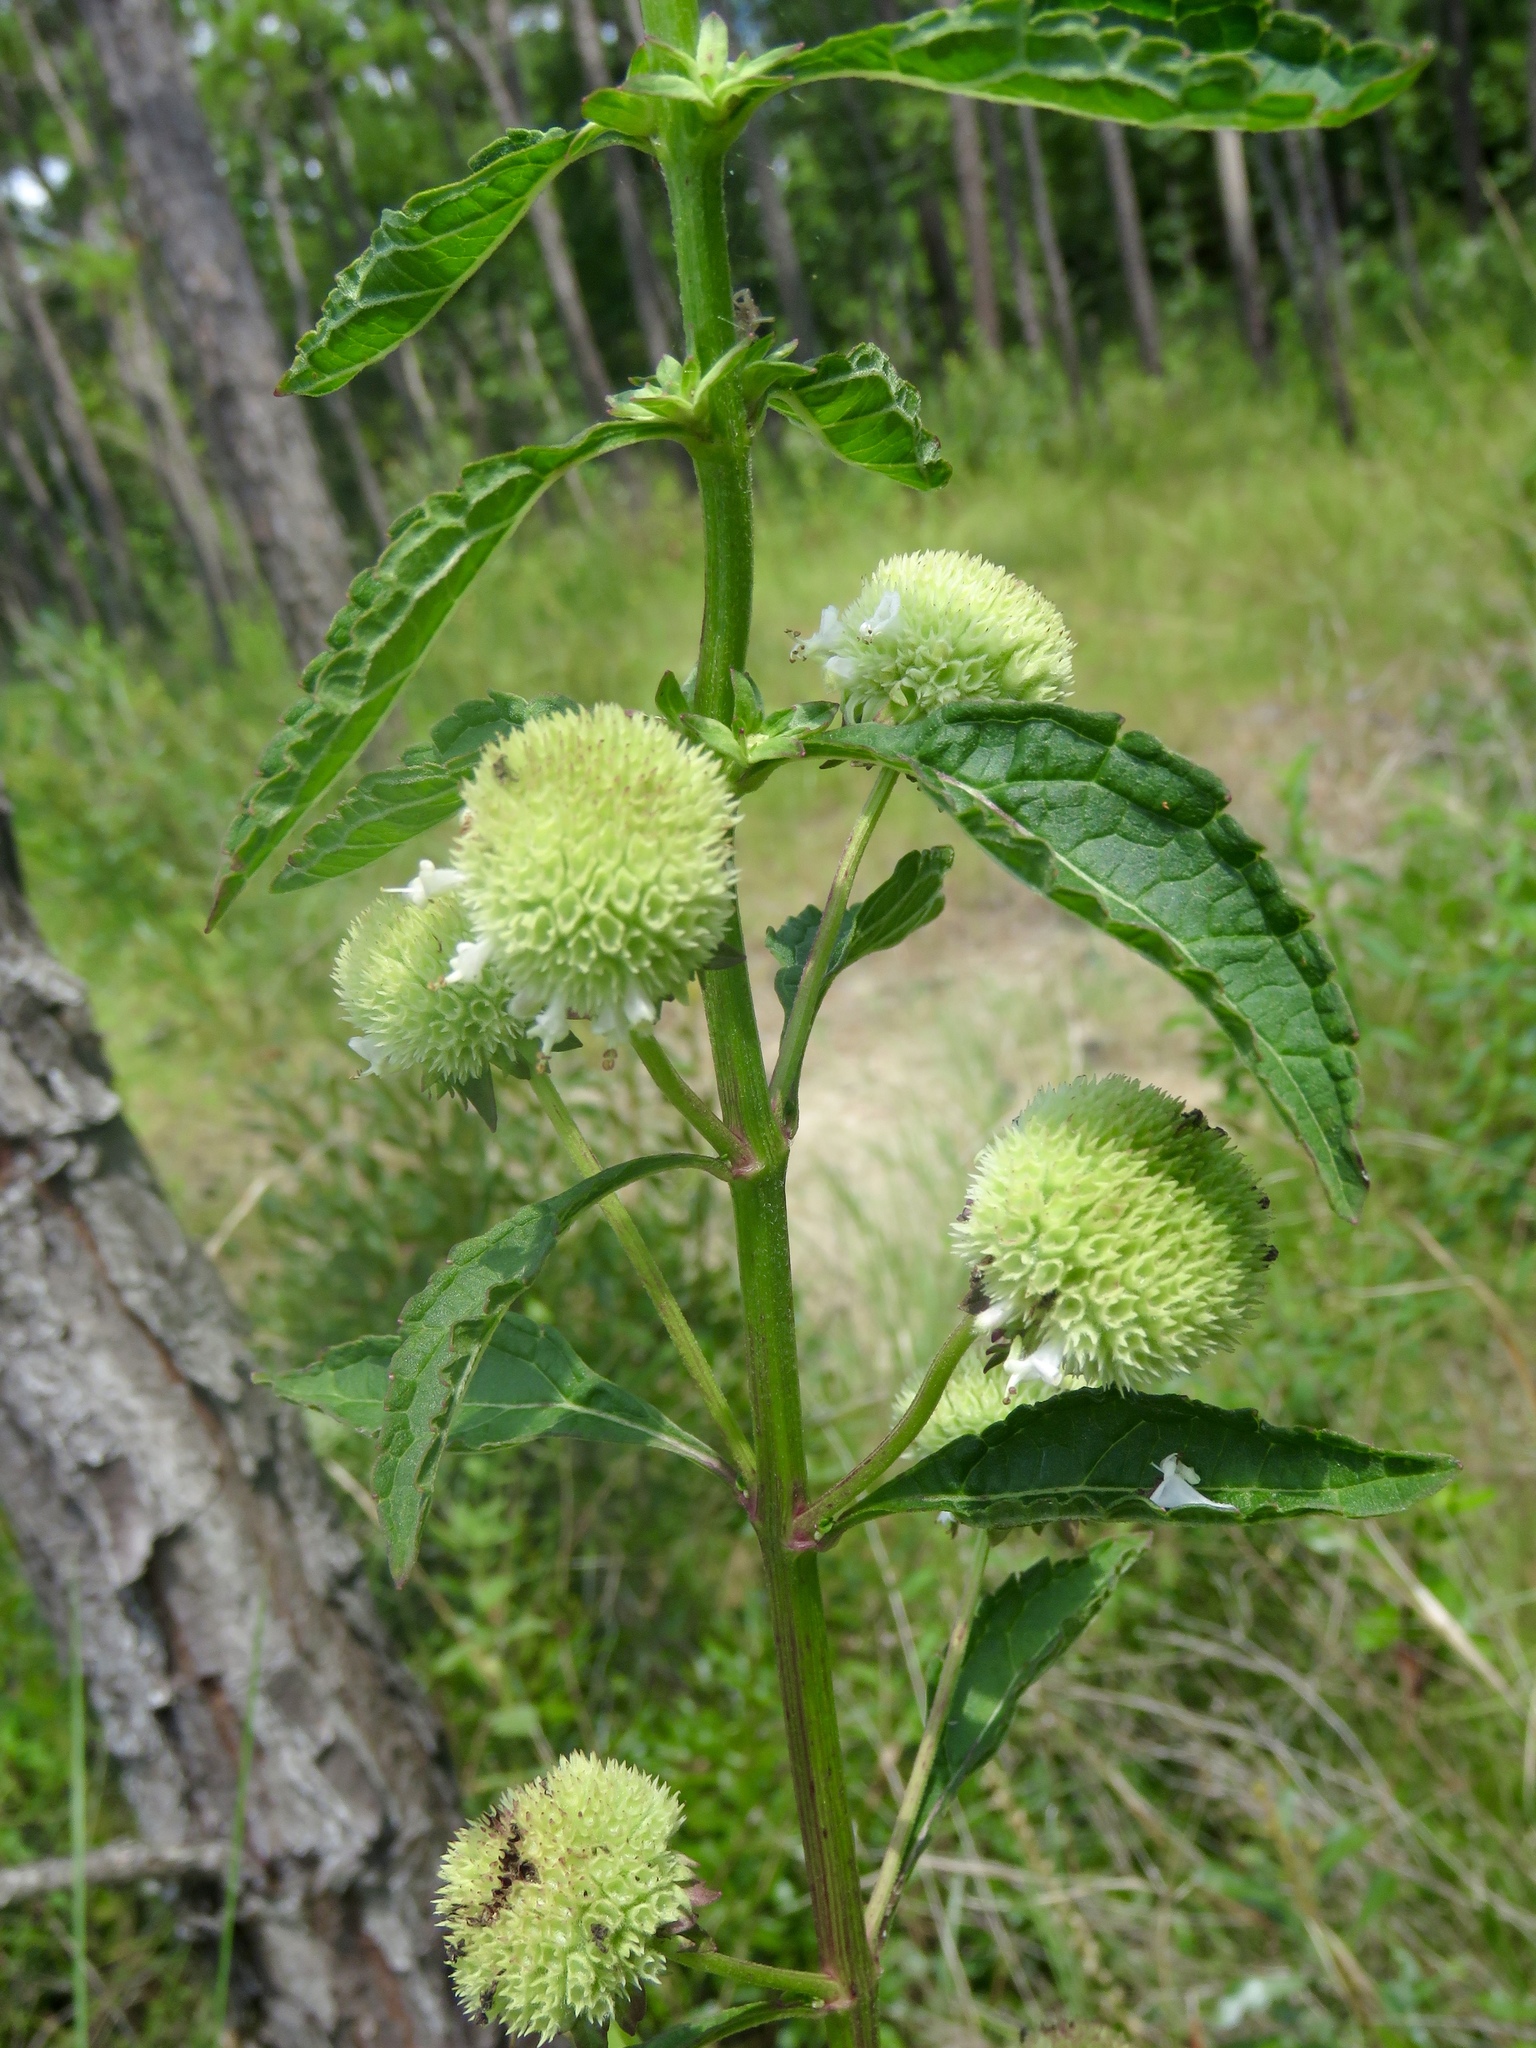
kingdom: Plantae
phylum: Tracheophyta
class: Magnoliopsida
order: Lamiales
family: Lamiaceae
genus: Hyptis
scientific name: Hyptis alata
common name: Cluster bush-mint
